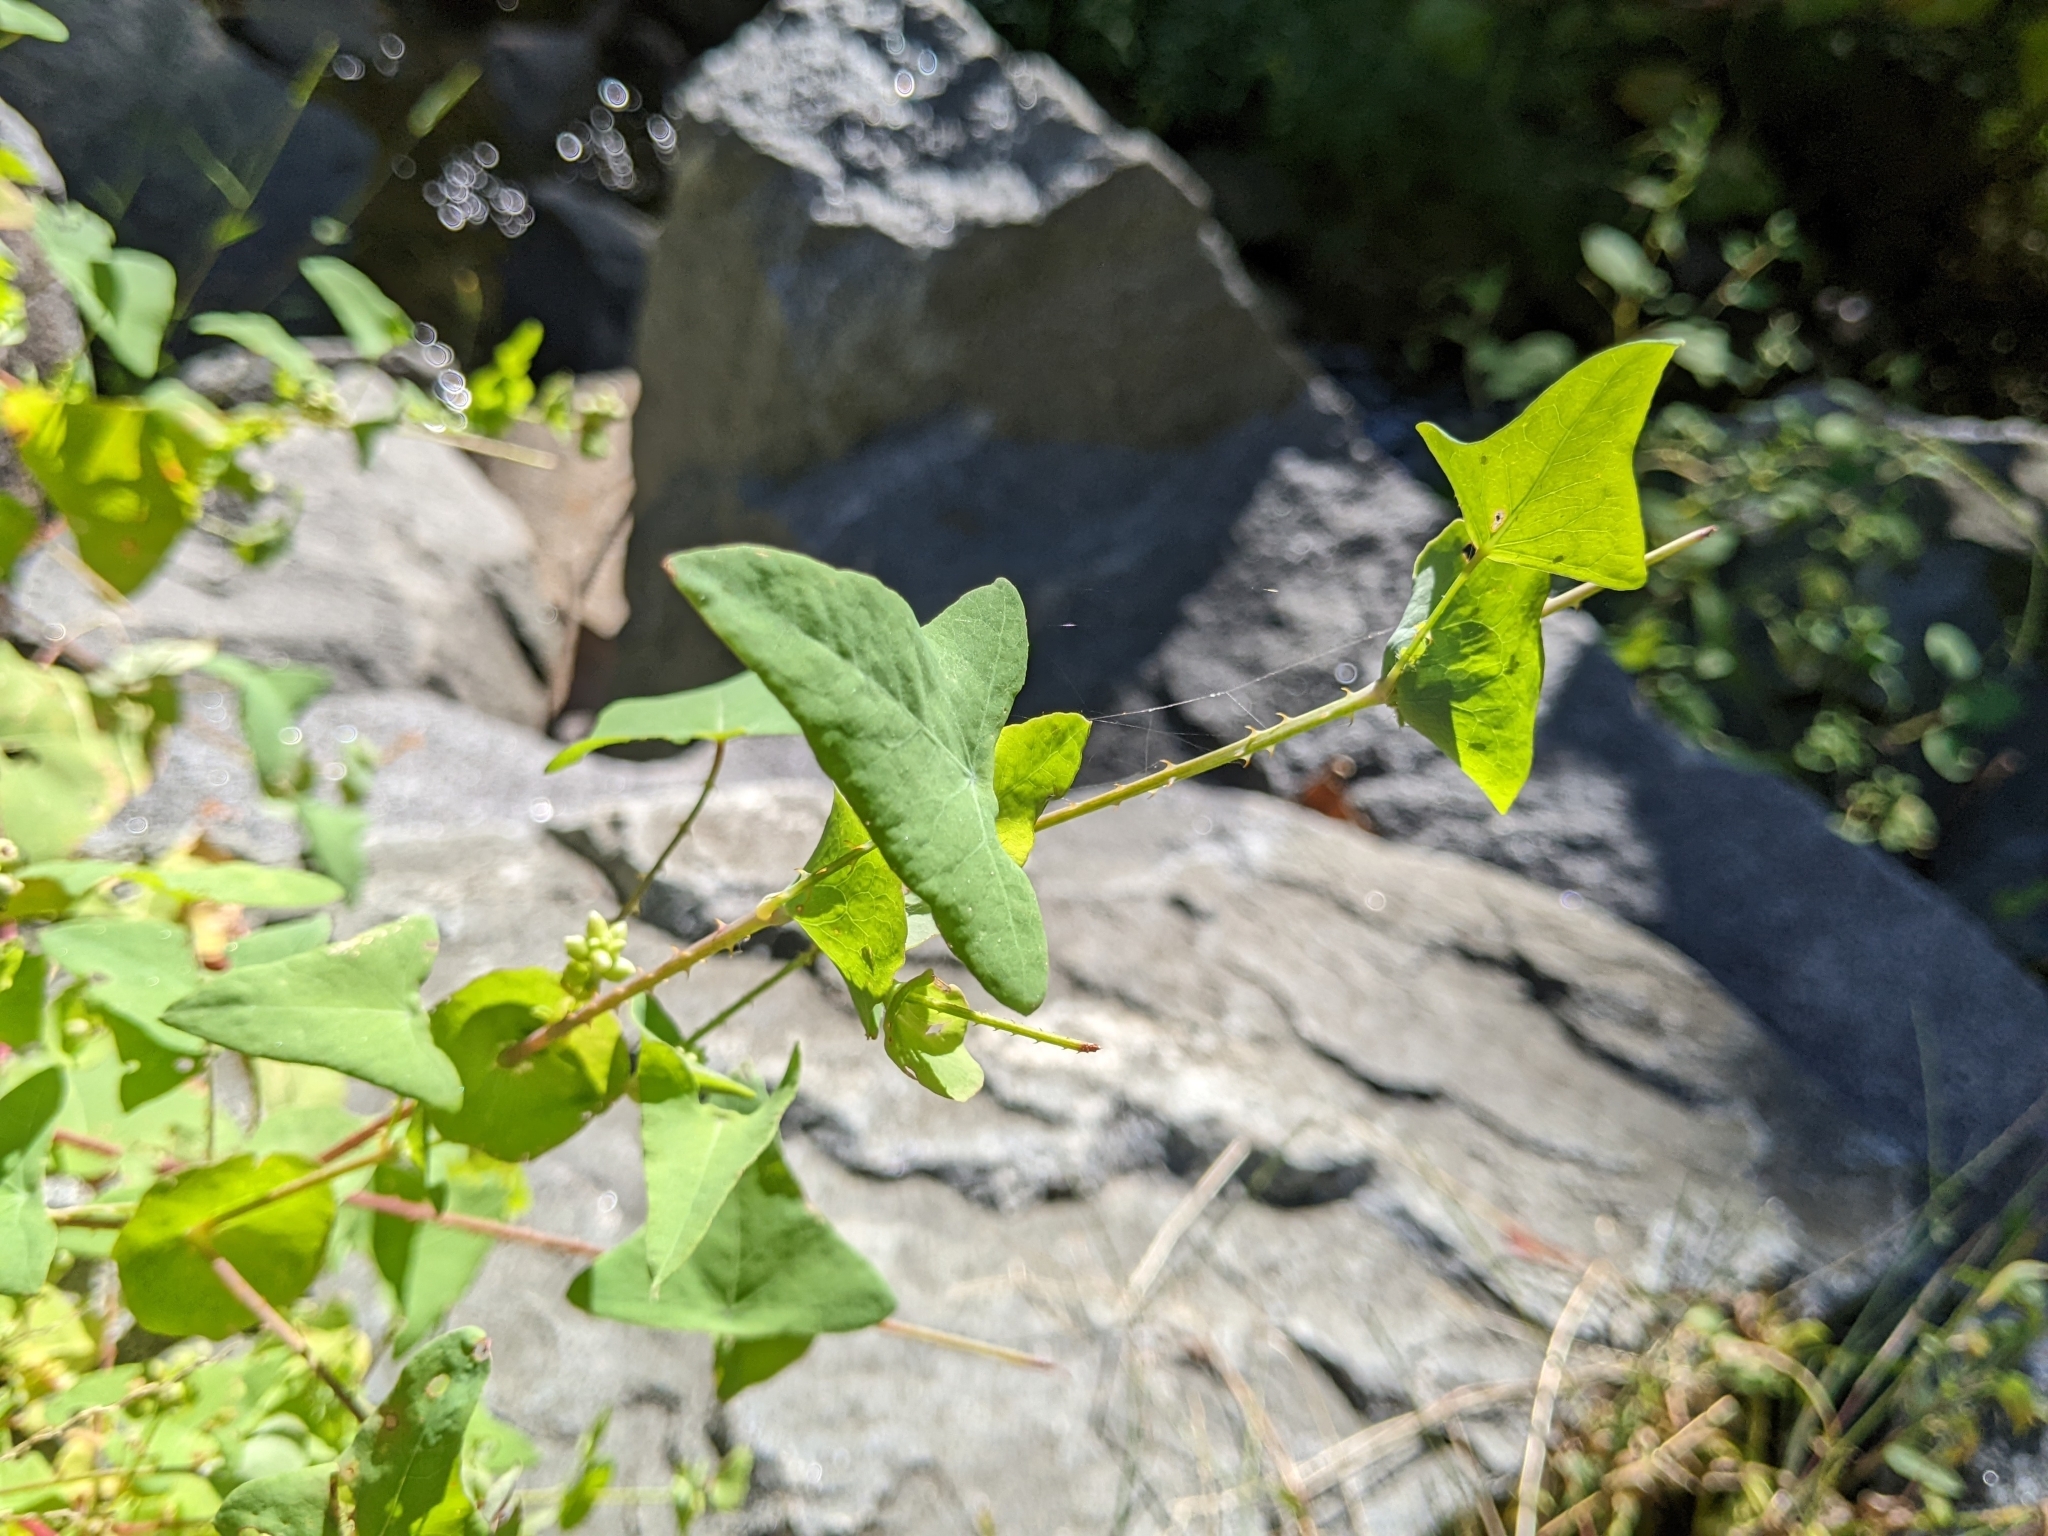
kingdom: Plantae
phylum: Tracheophyta
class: Magnoliopsida
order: Caryophyllales
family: Polygonaceae
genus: Persicaria
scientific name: Persicaria perfoliata
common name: Asiatic tearthumb
